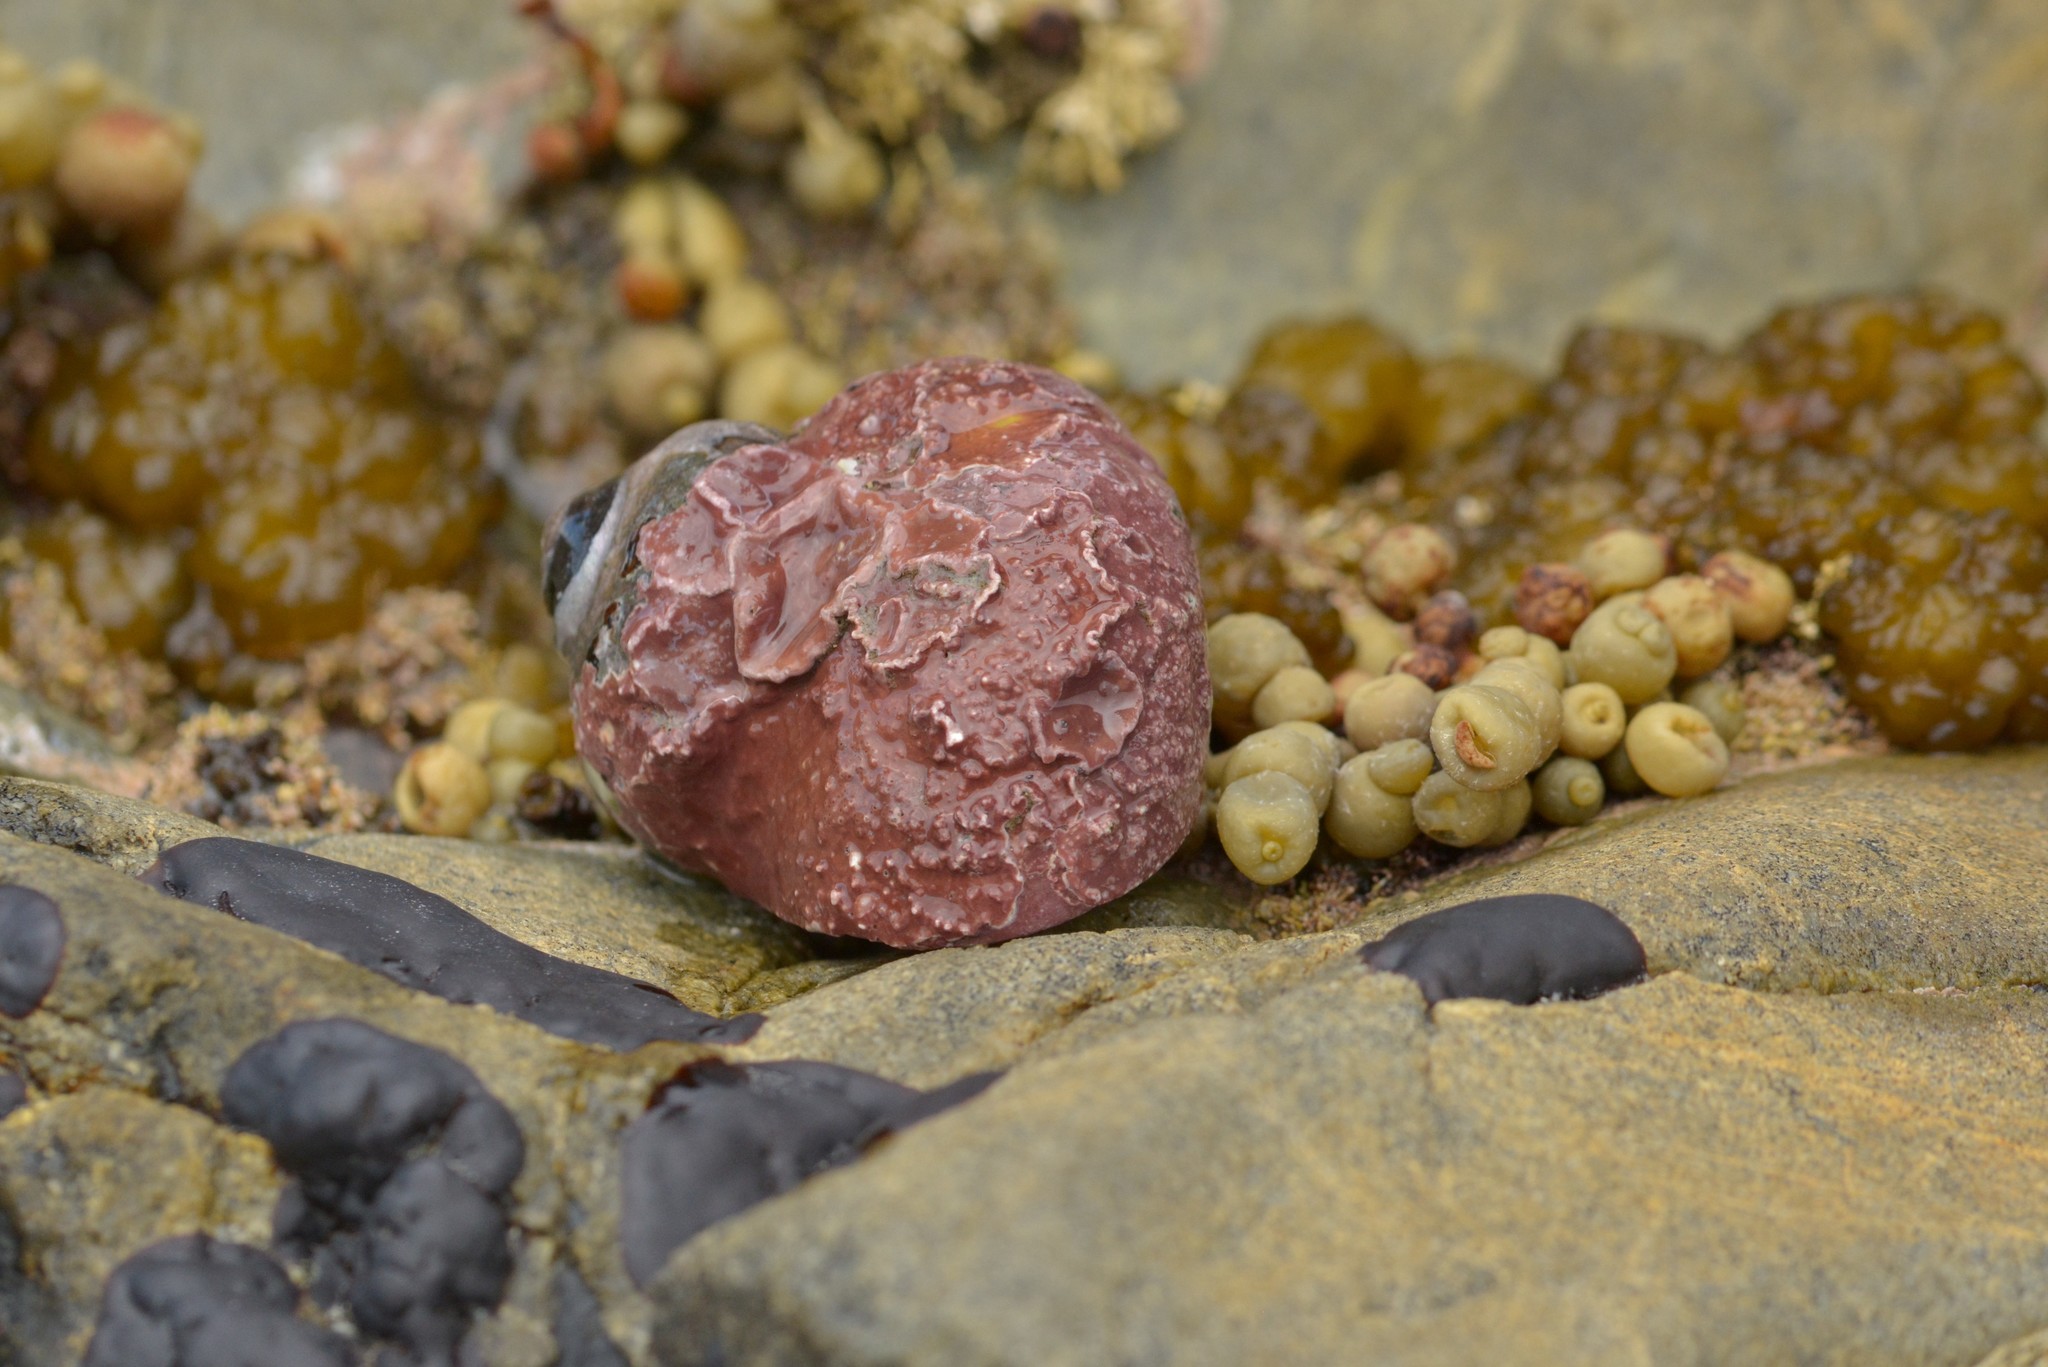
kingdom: Animalia
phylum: Arthropoda
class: Malacostraca
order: Decapoda
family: Paguridae
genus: Pagurus
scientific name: Pagurus novizealandiae
